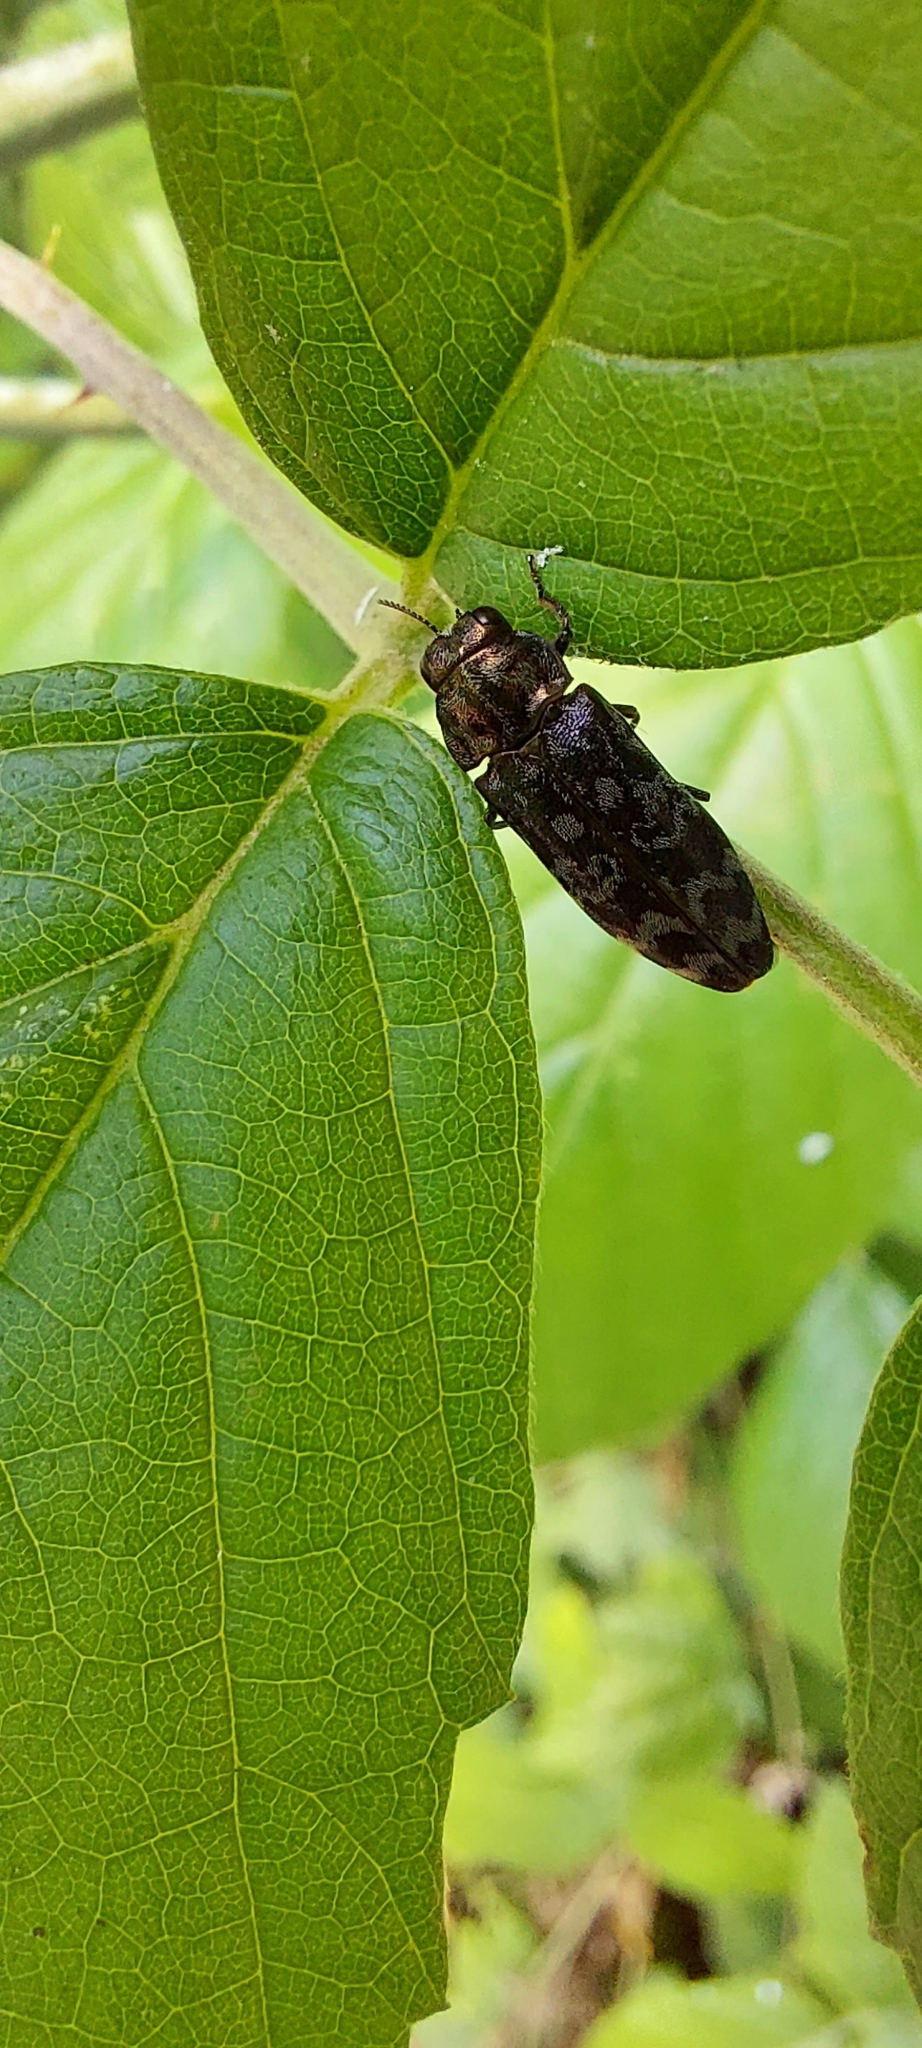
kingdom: Animalia
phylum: Arthropoda
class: Insecta
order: Coleoptera
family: Buprestidae
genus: Coraebus
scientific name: Coraebus rubi
